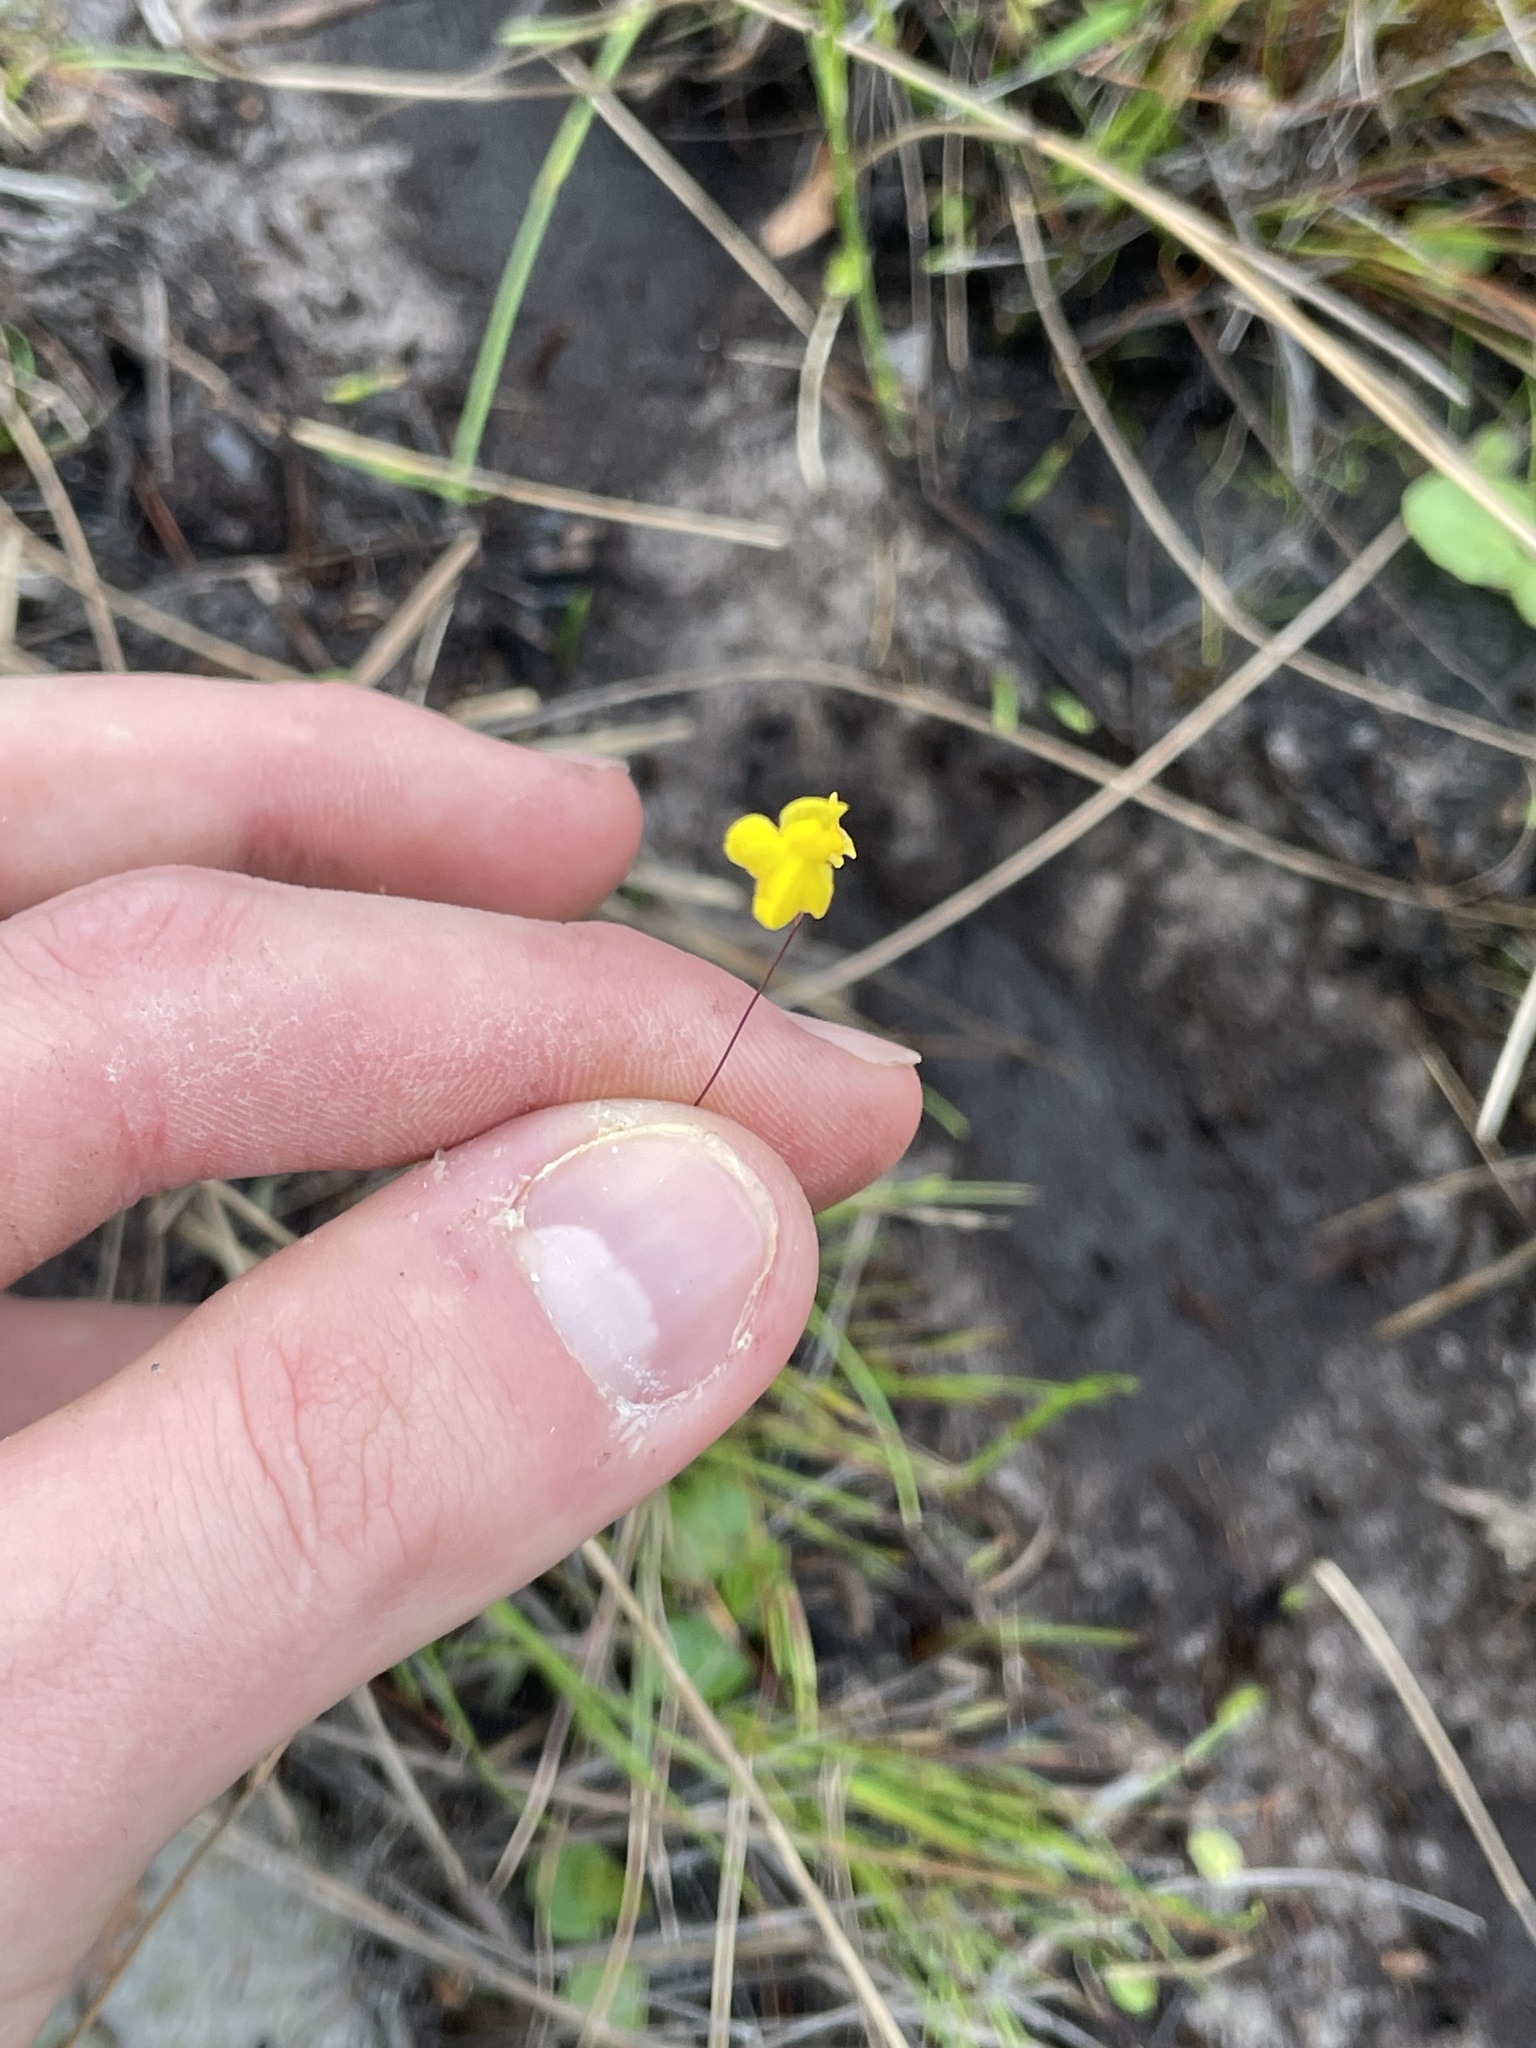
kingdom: Plantae
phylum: Tracheophyta
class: Magnoliopsida
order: Lamiales
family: Lentibulariaceae
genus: Utricularia
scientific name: Utricularia subulata
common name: Tiny bladderwort
